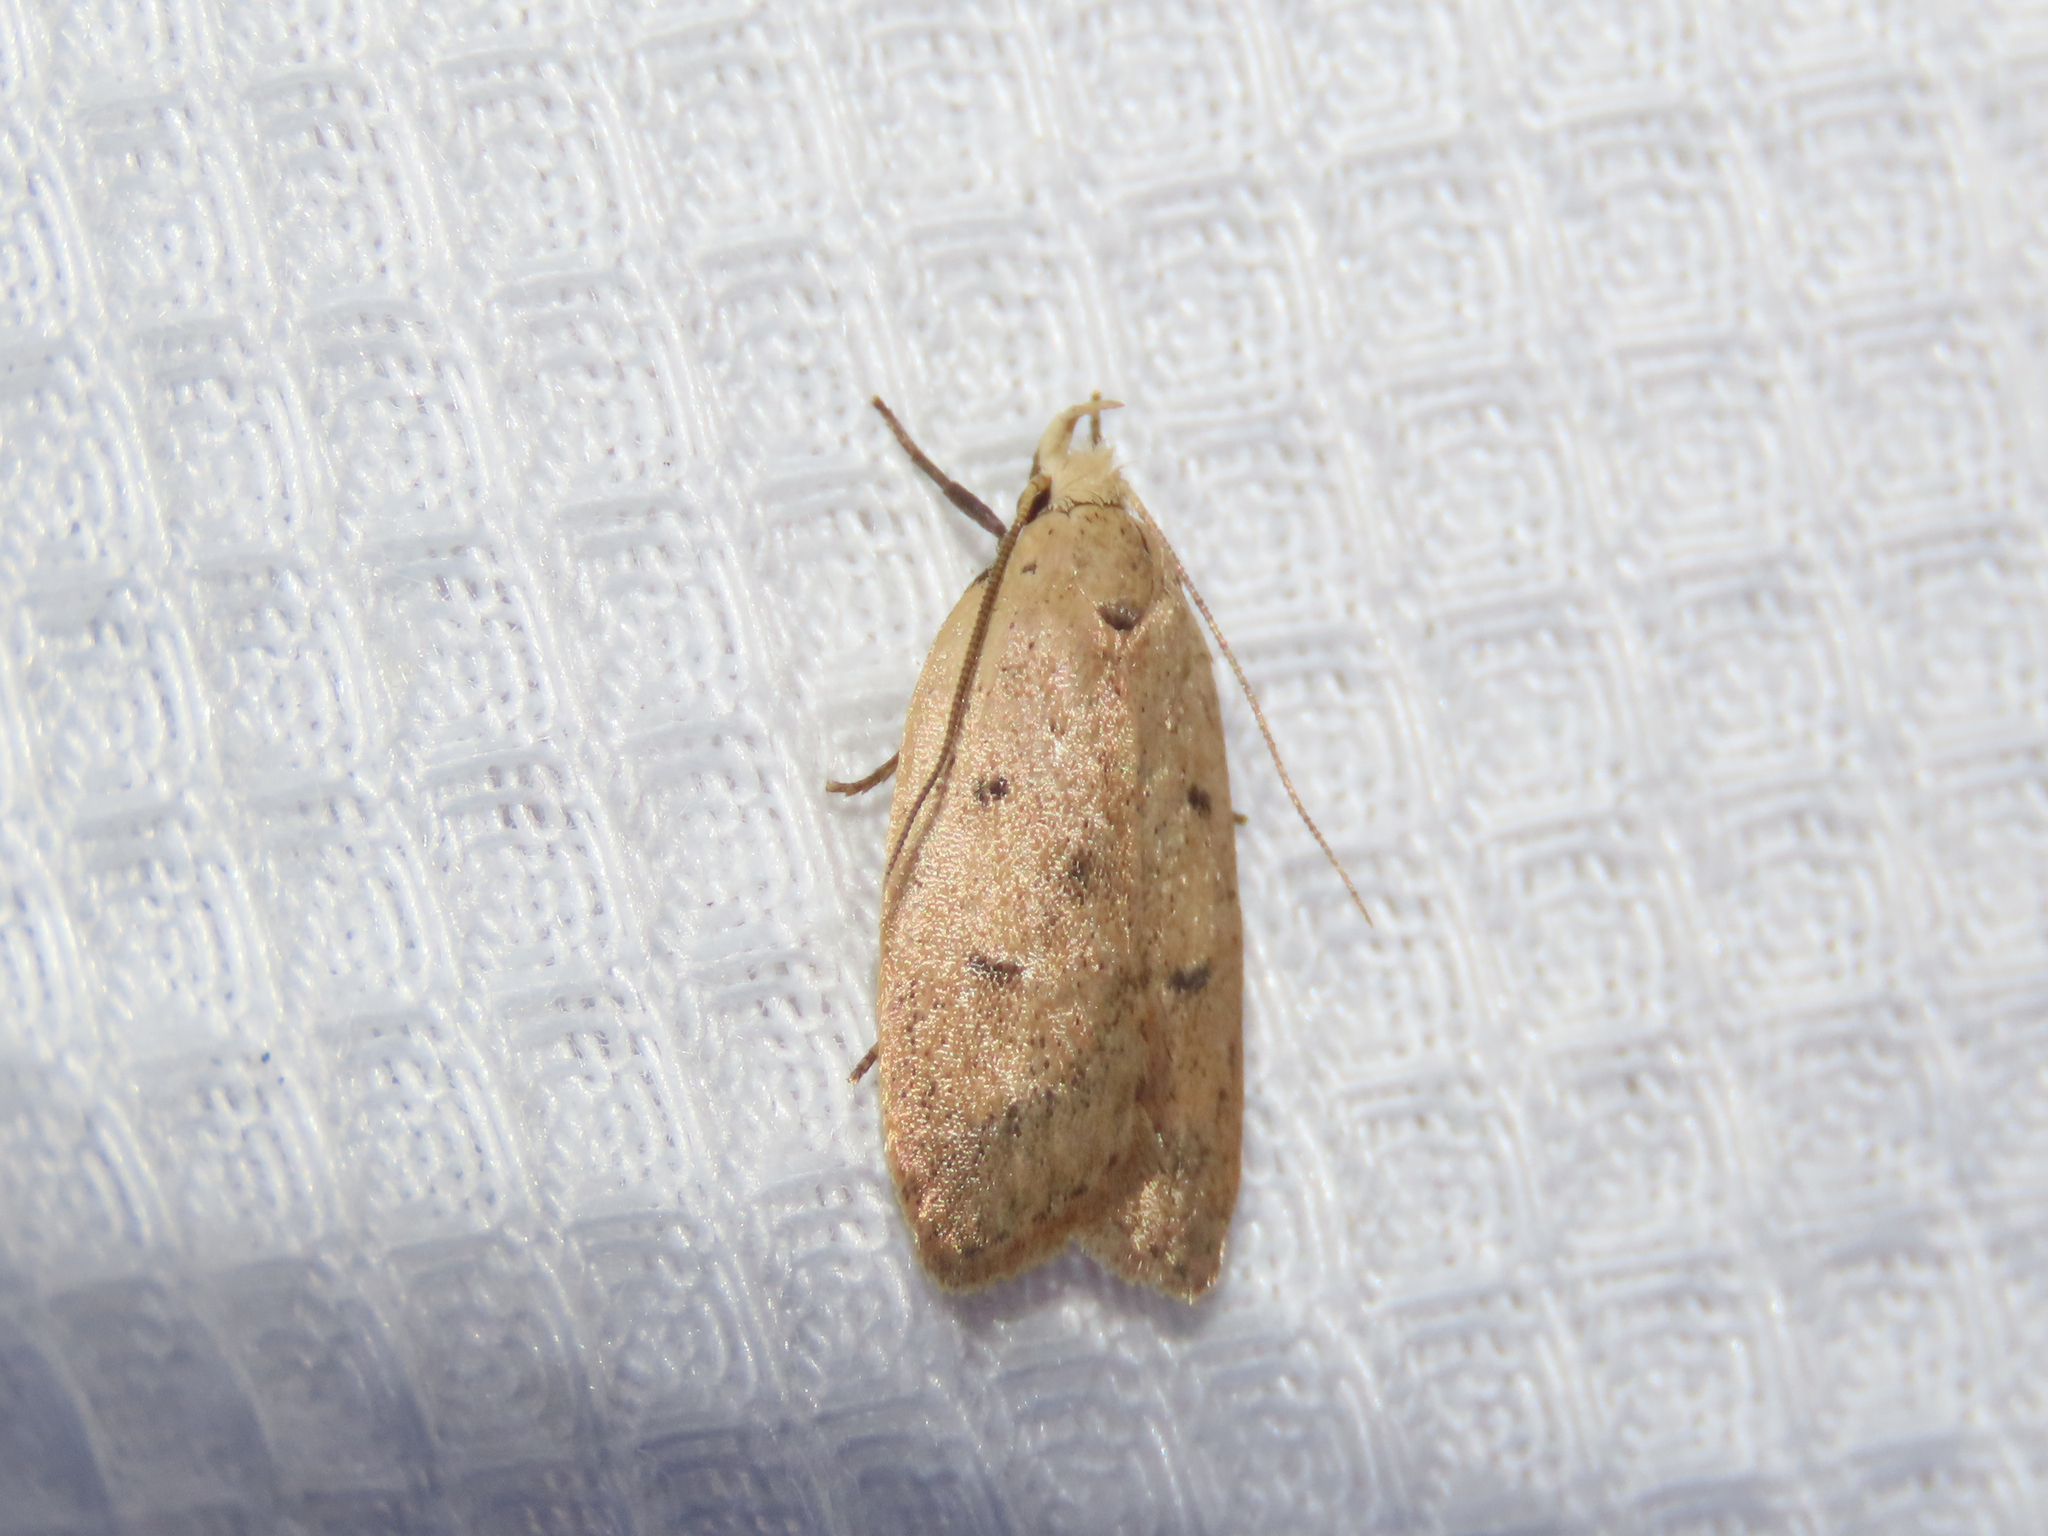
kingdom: Animalia
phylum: Arthropoda
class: Insecta
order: Lepidoptera
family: Peleopodidae
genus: Machimia
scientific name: Machimia tentoriferella
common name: Gold-striped leaftier moth
